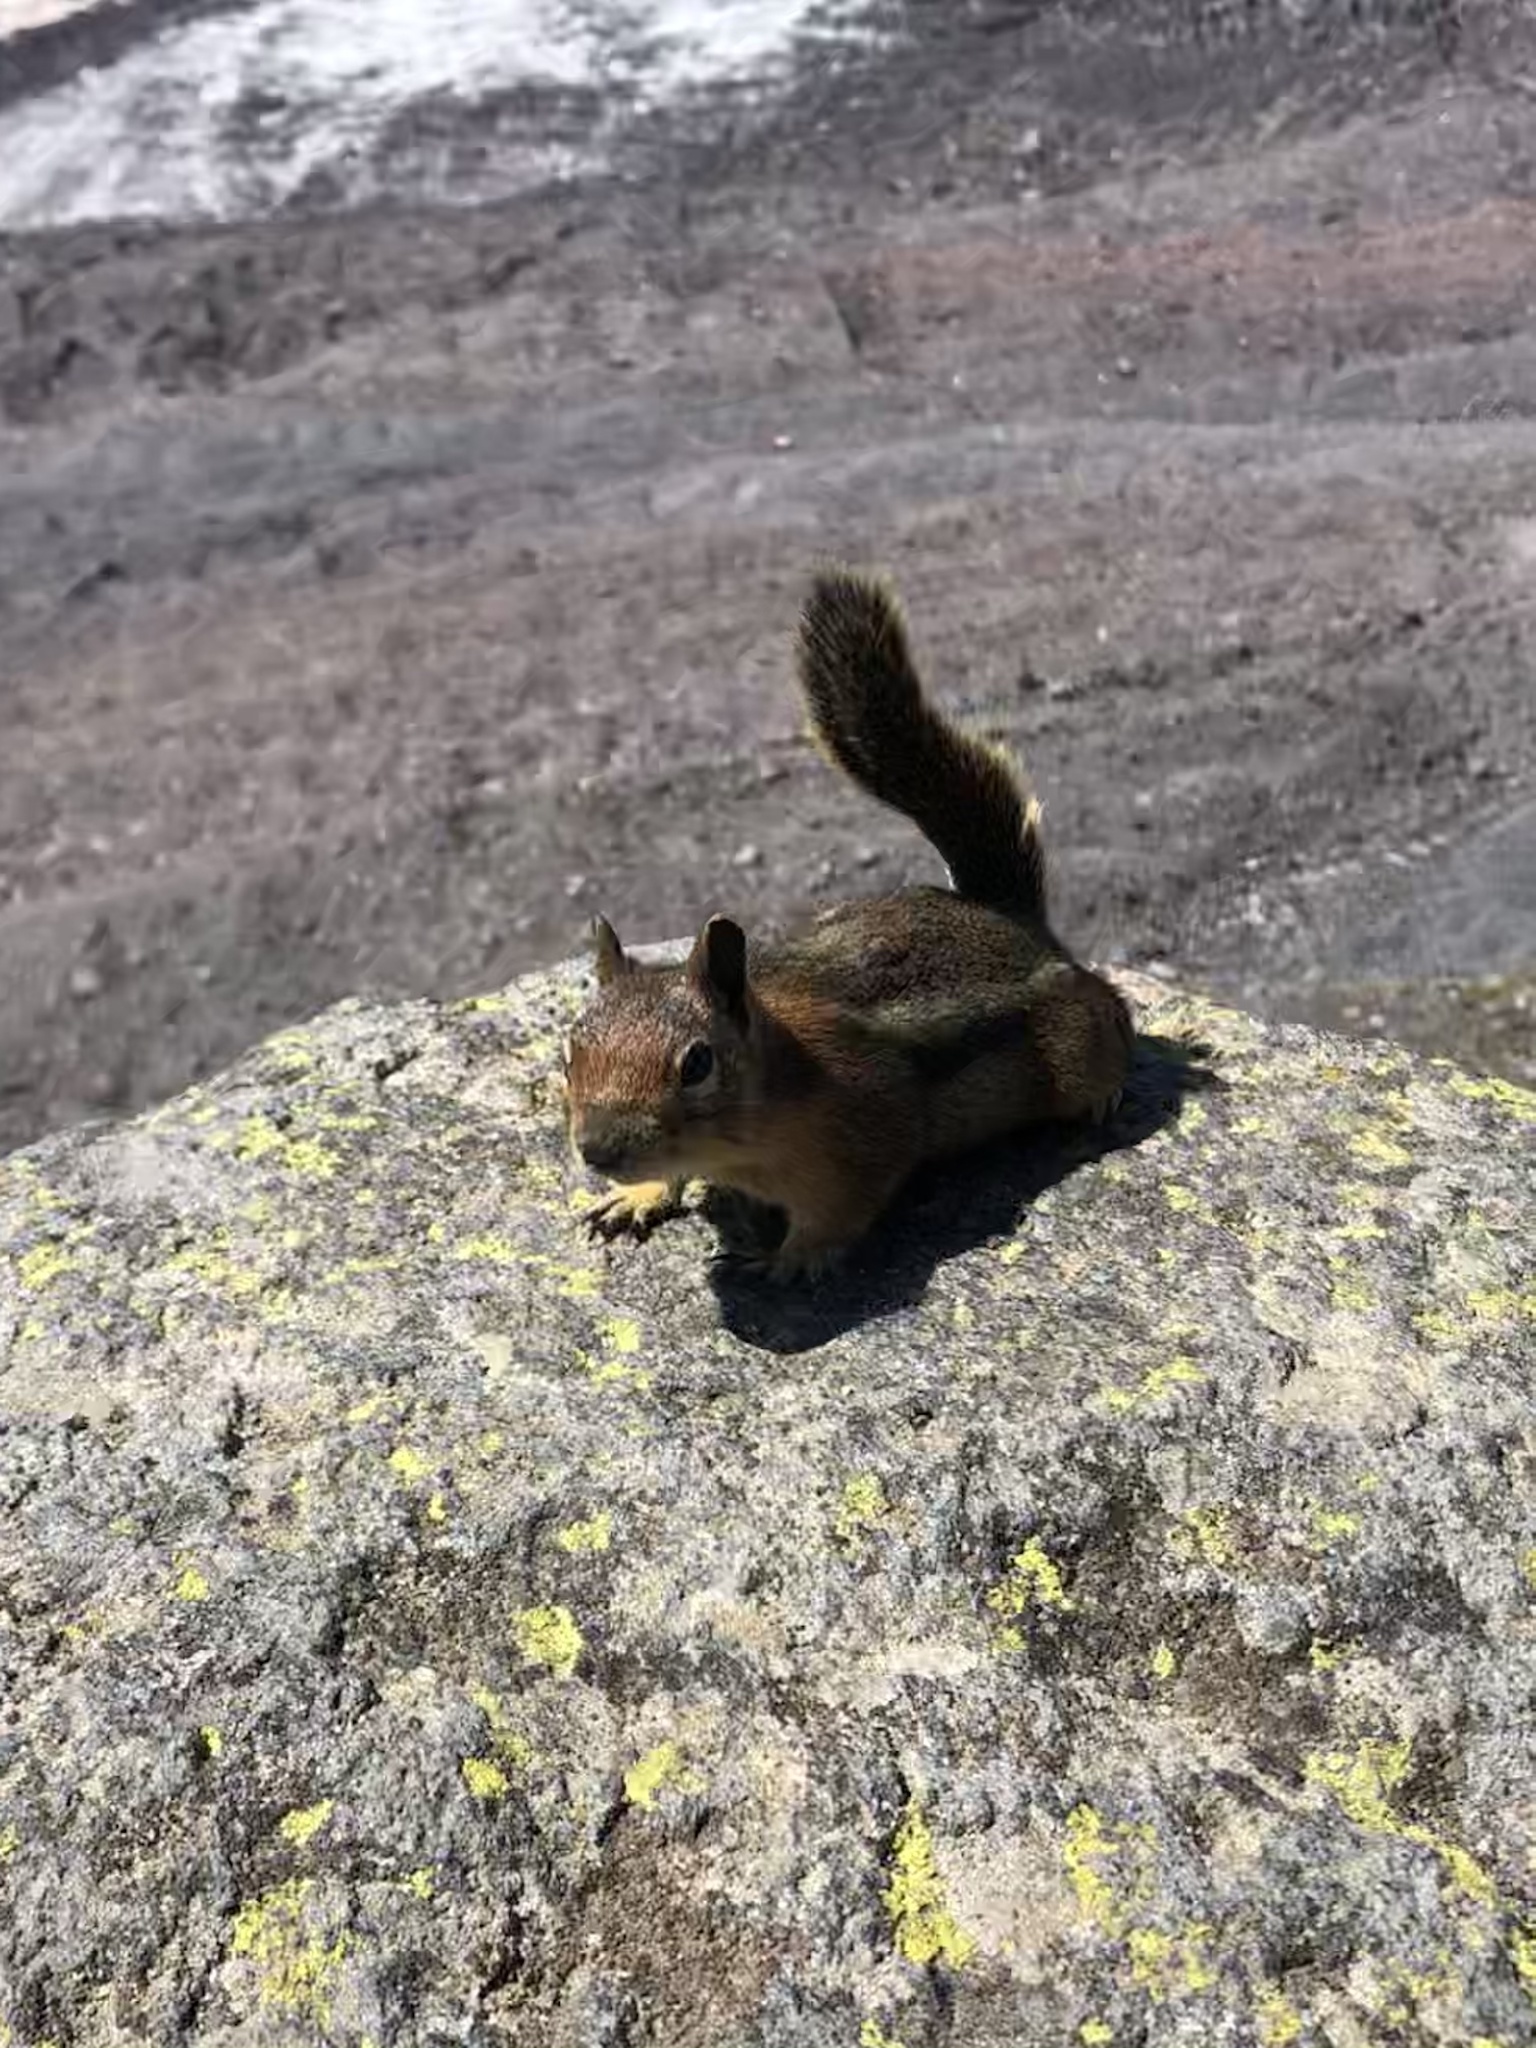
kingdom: Animalia
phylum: Chordata
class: Mammalia
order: Rodentia
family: Sciuridae
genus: Callospermophilus
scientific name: Callospermophilus saturatus
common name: Cascade golden-mantled ground squirrel
